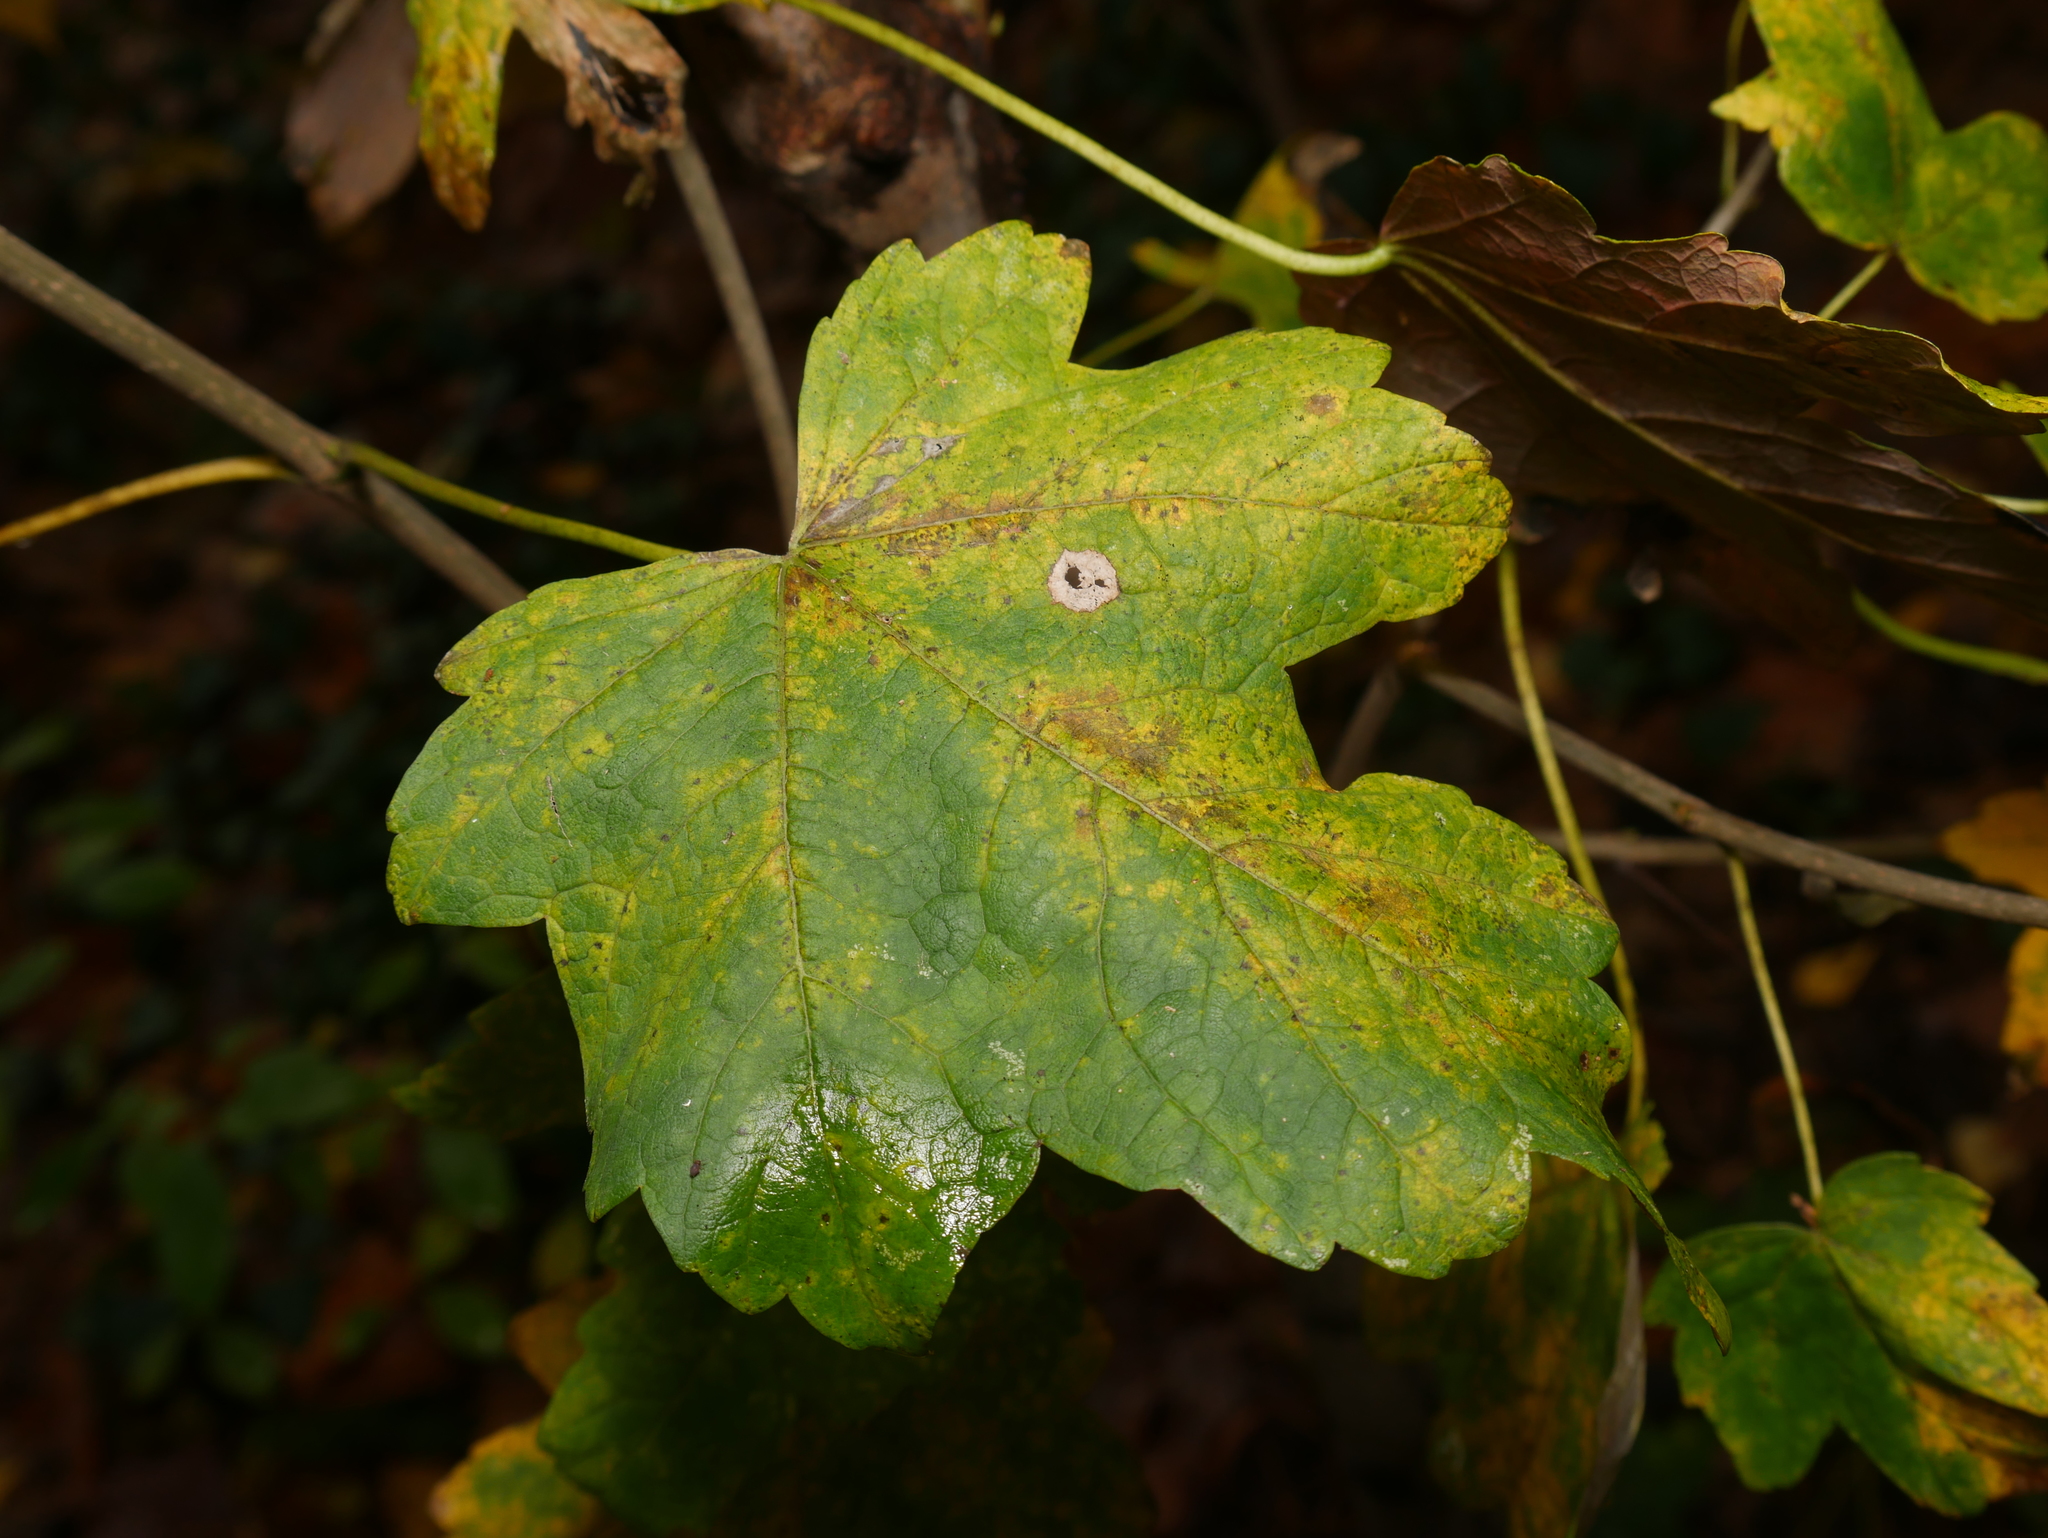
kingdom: Plantae
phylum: Tracheophyta
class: Magnoliopsida
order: Sapindales
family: Sapindaceae
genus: Acer
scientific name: Acer pseudoplatanus
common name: Sycamore
